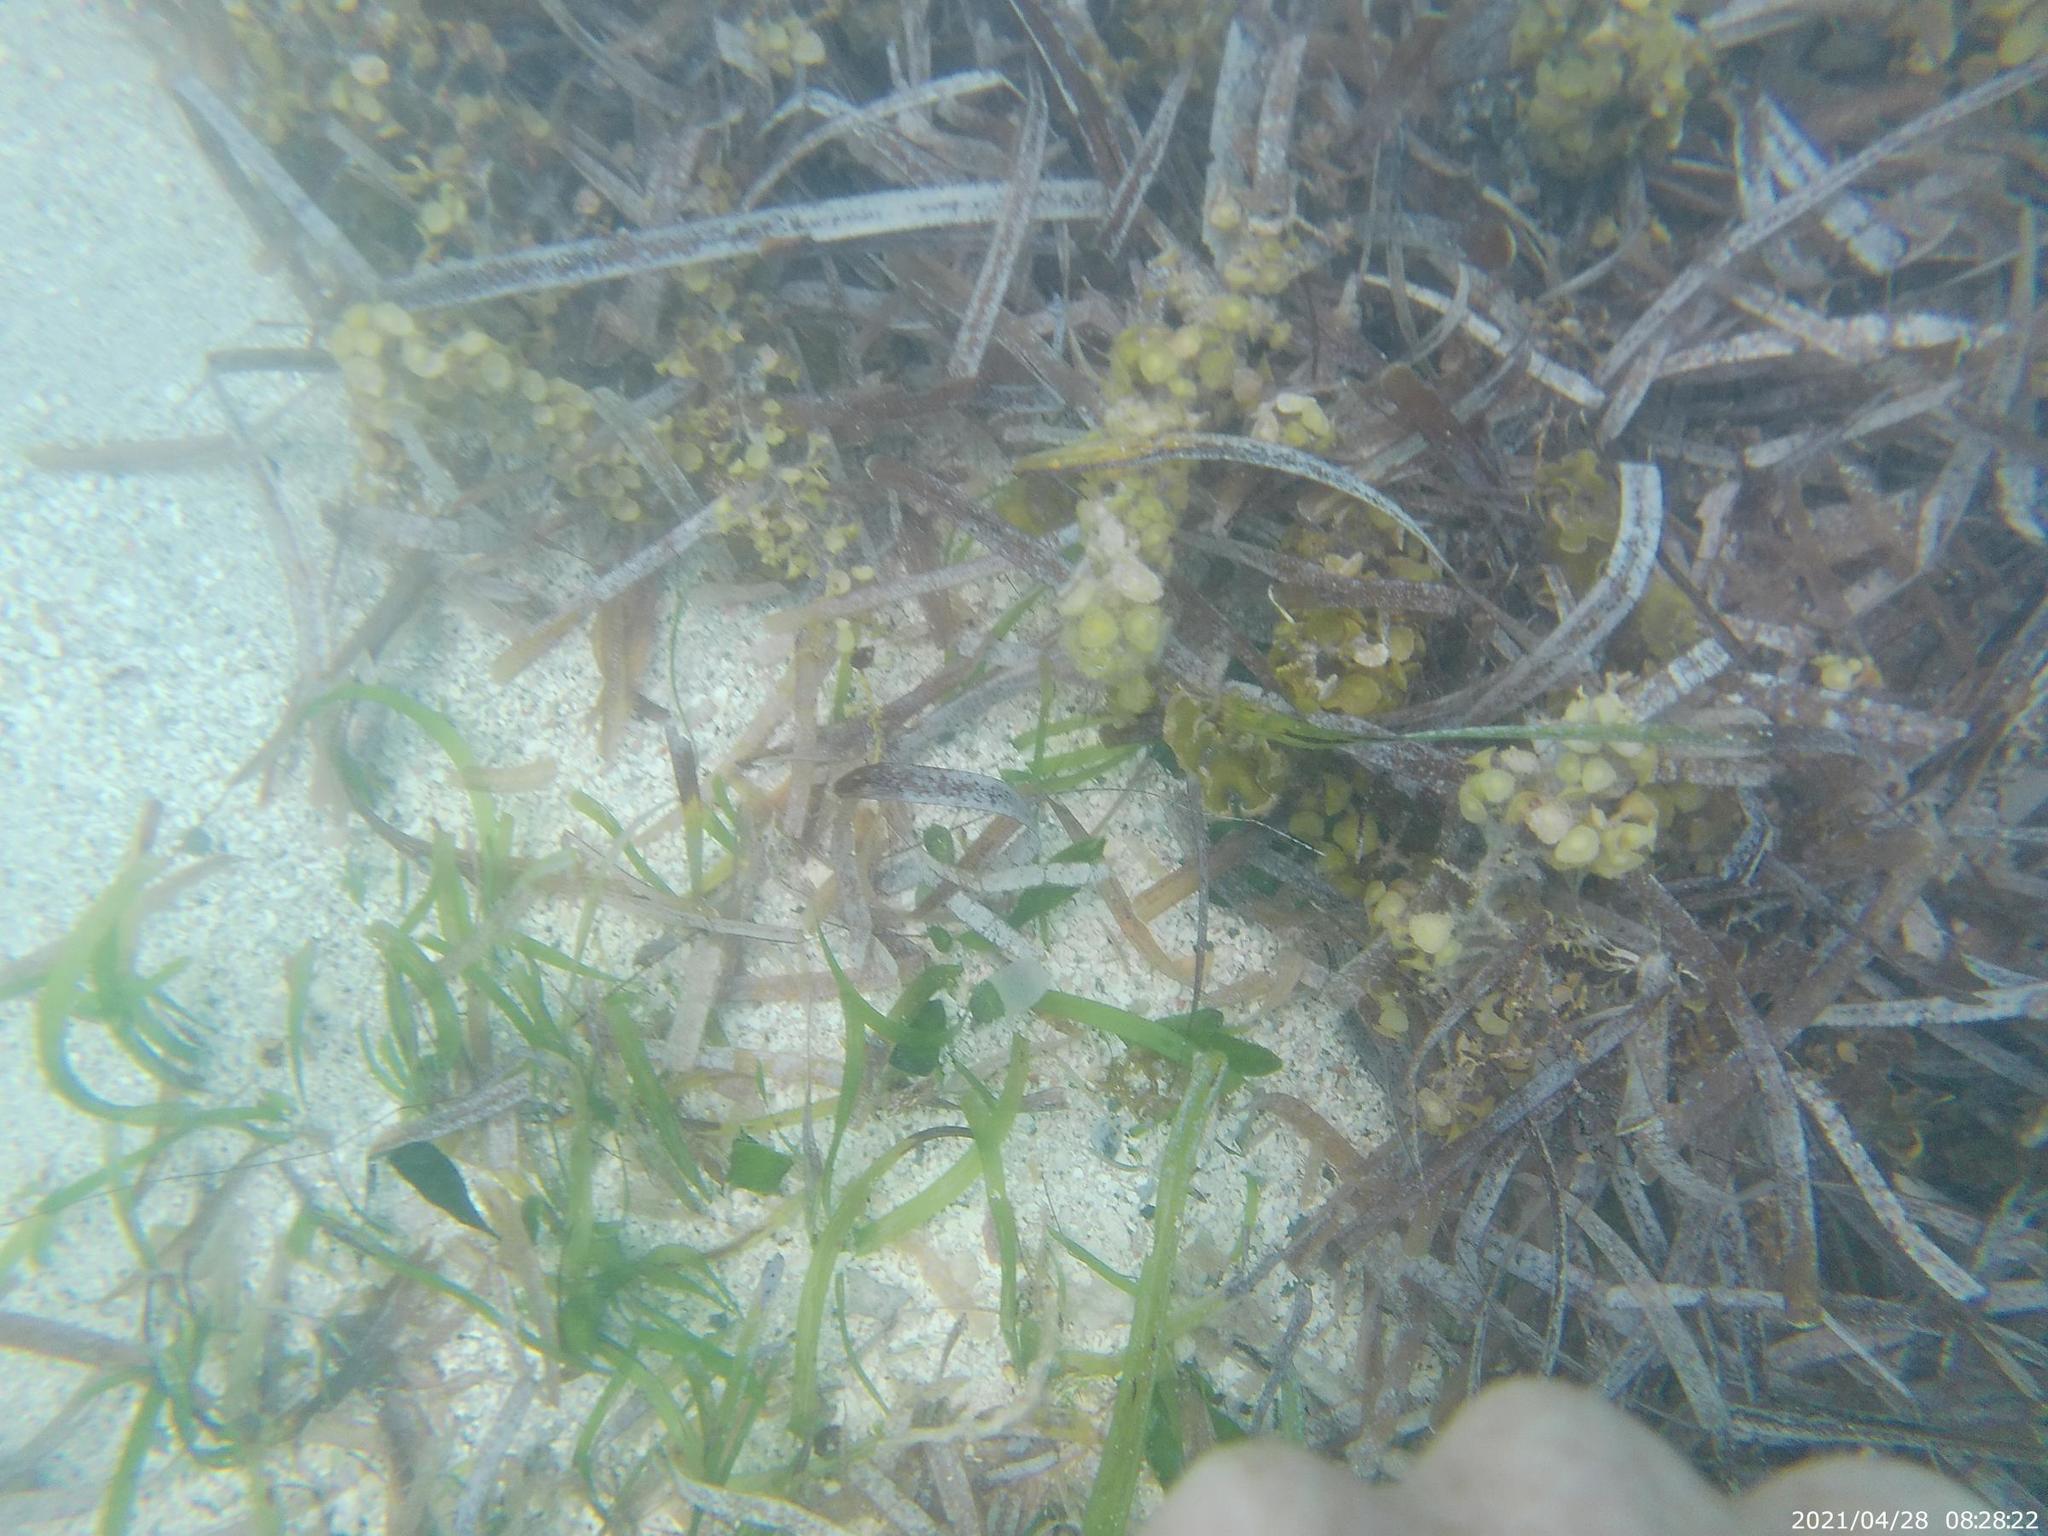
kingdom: Plantae
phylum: Tracheophyta
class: Liliopsida
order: Alismatales
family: Hydrocharitaceae
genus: Thalassia
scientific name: Thalassia testudinum
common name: Species code: tt
